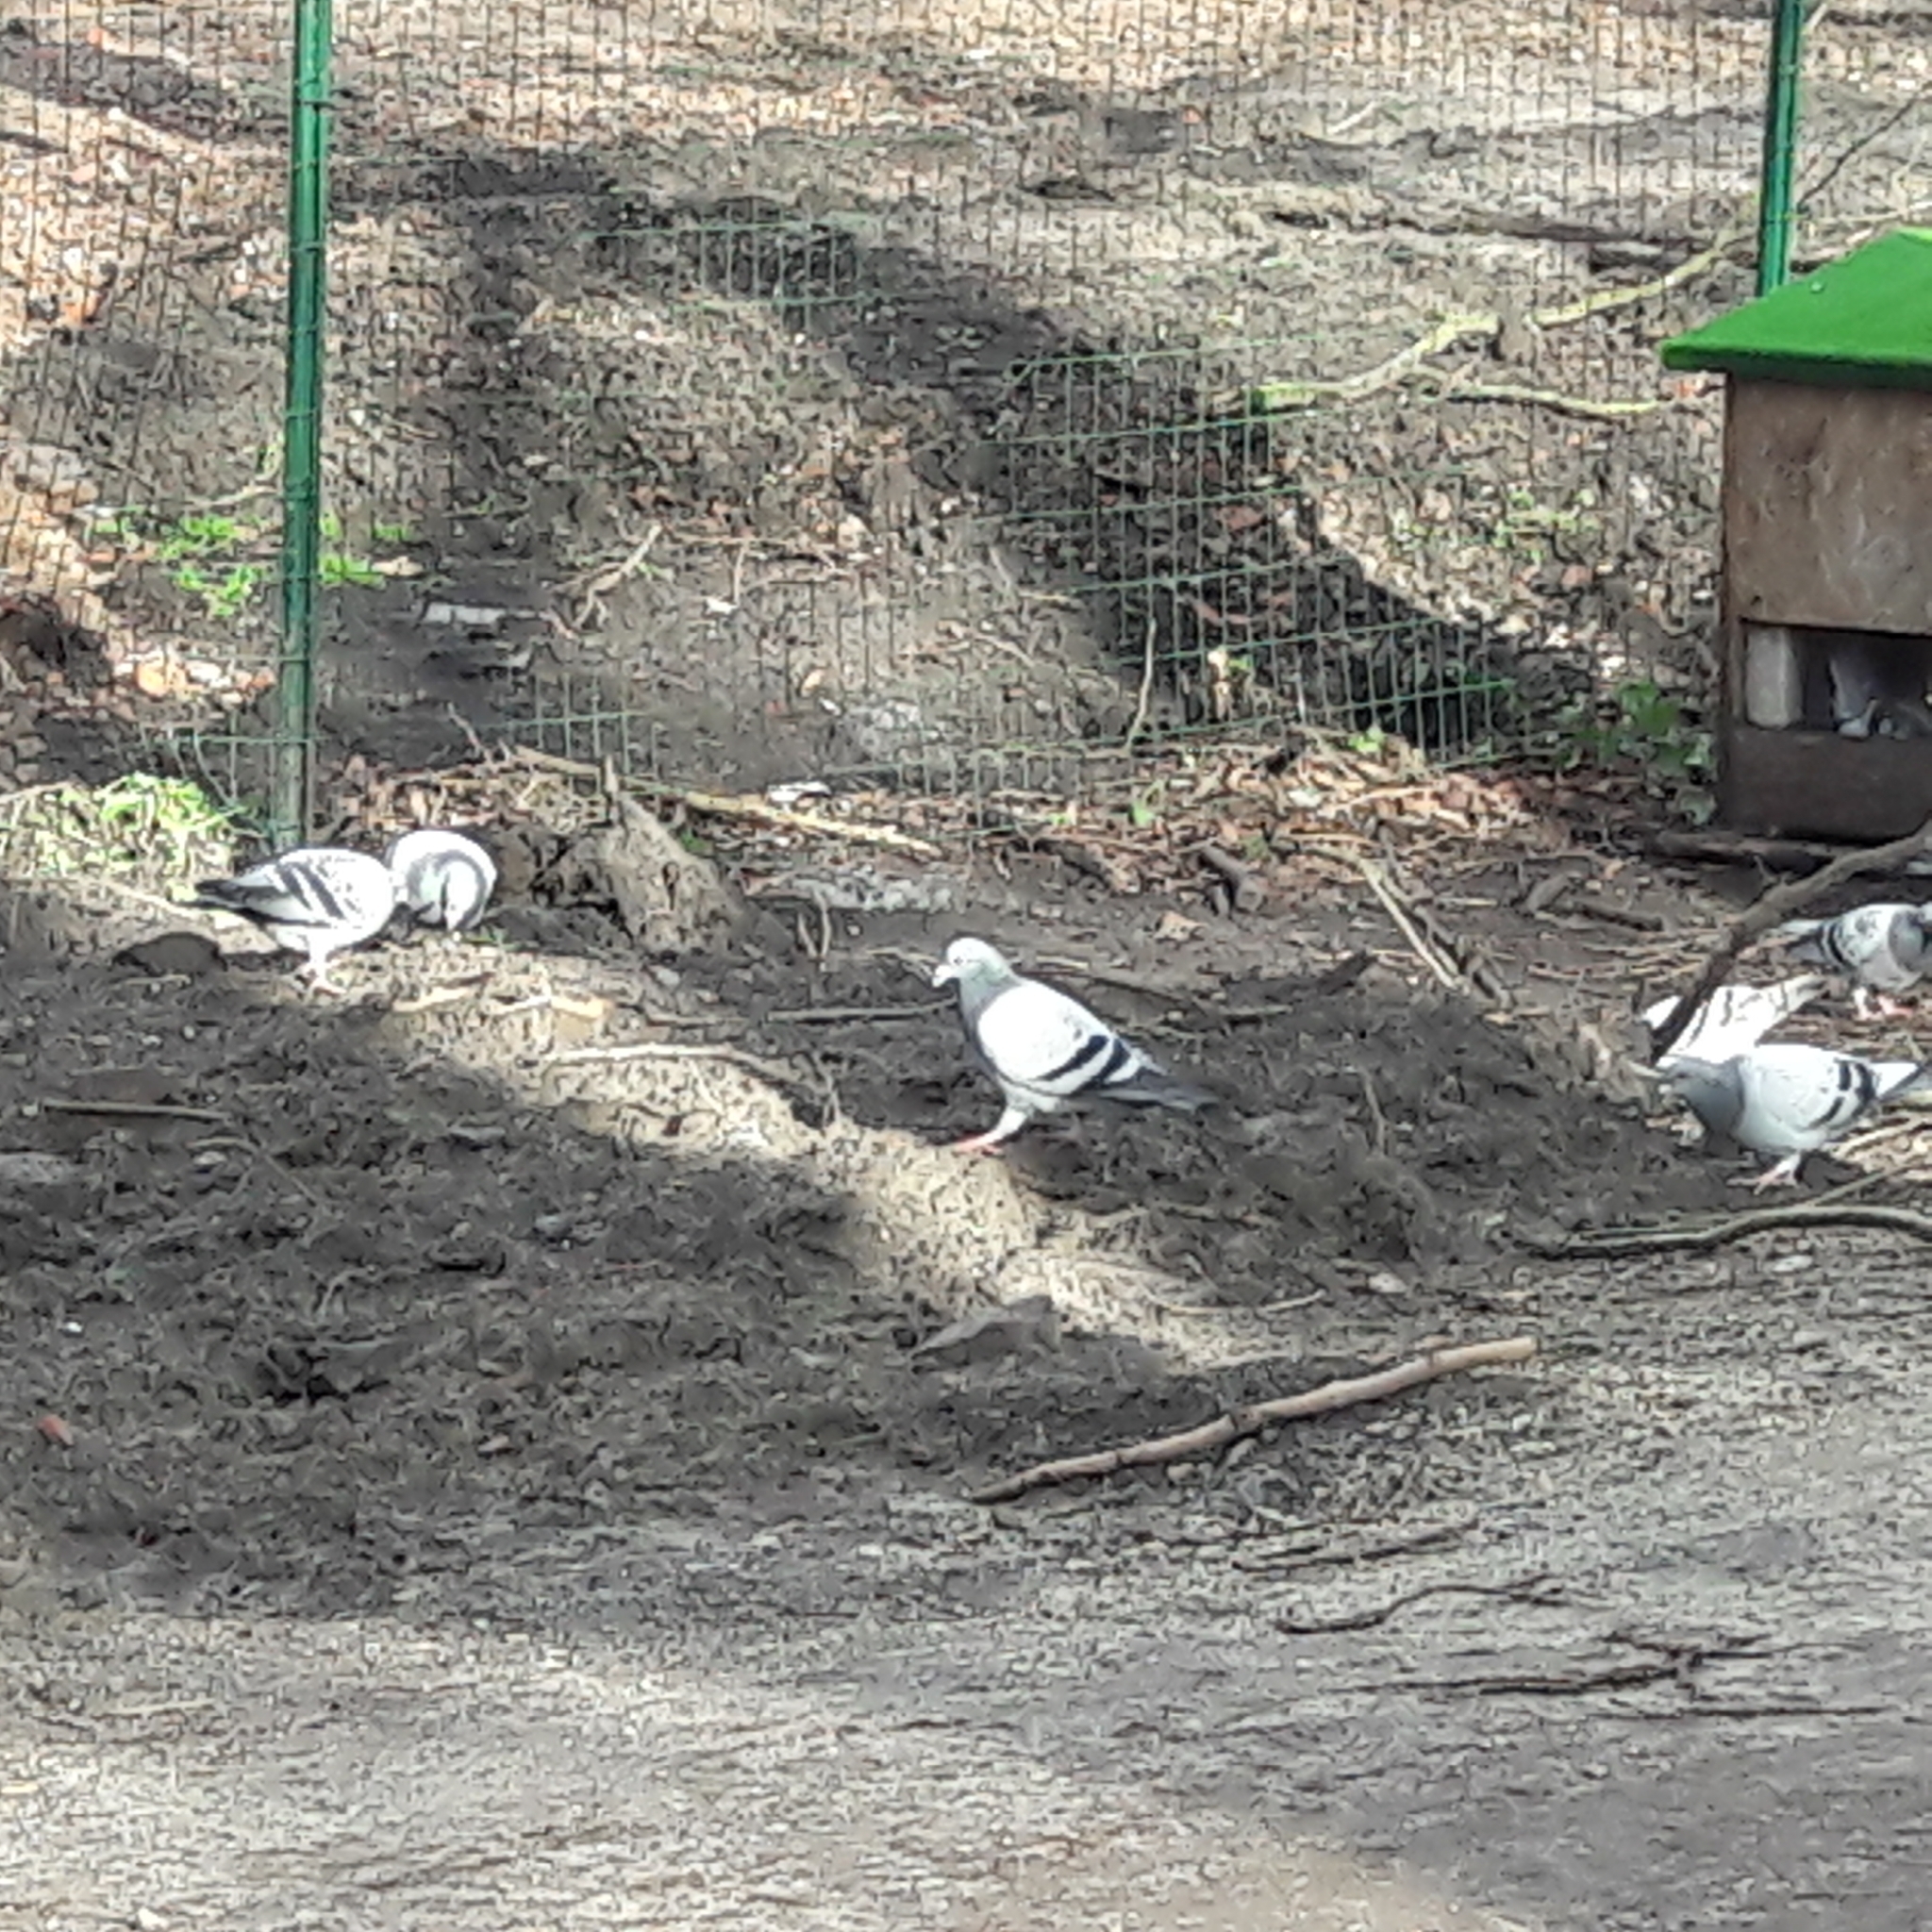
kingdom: Animalia
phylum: Chordata
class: Aves
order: Columbiformes
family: Columbidae
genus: Columba
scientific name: Columba livia
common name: Rock pigeon
